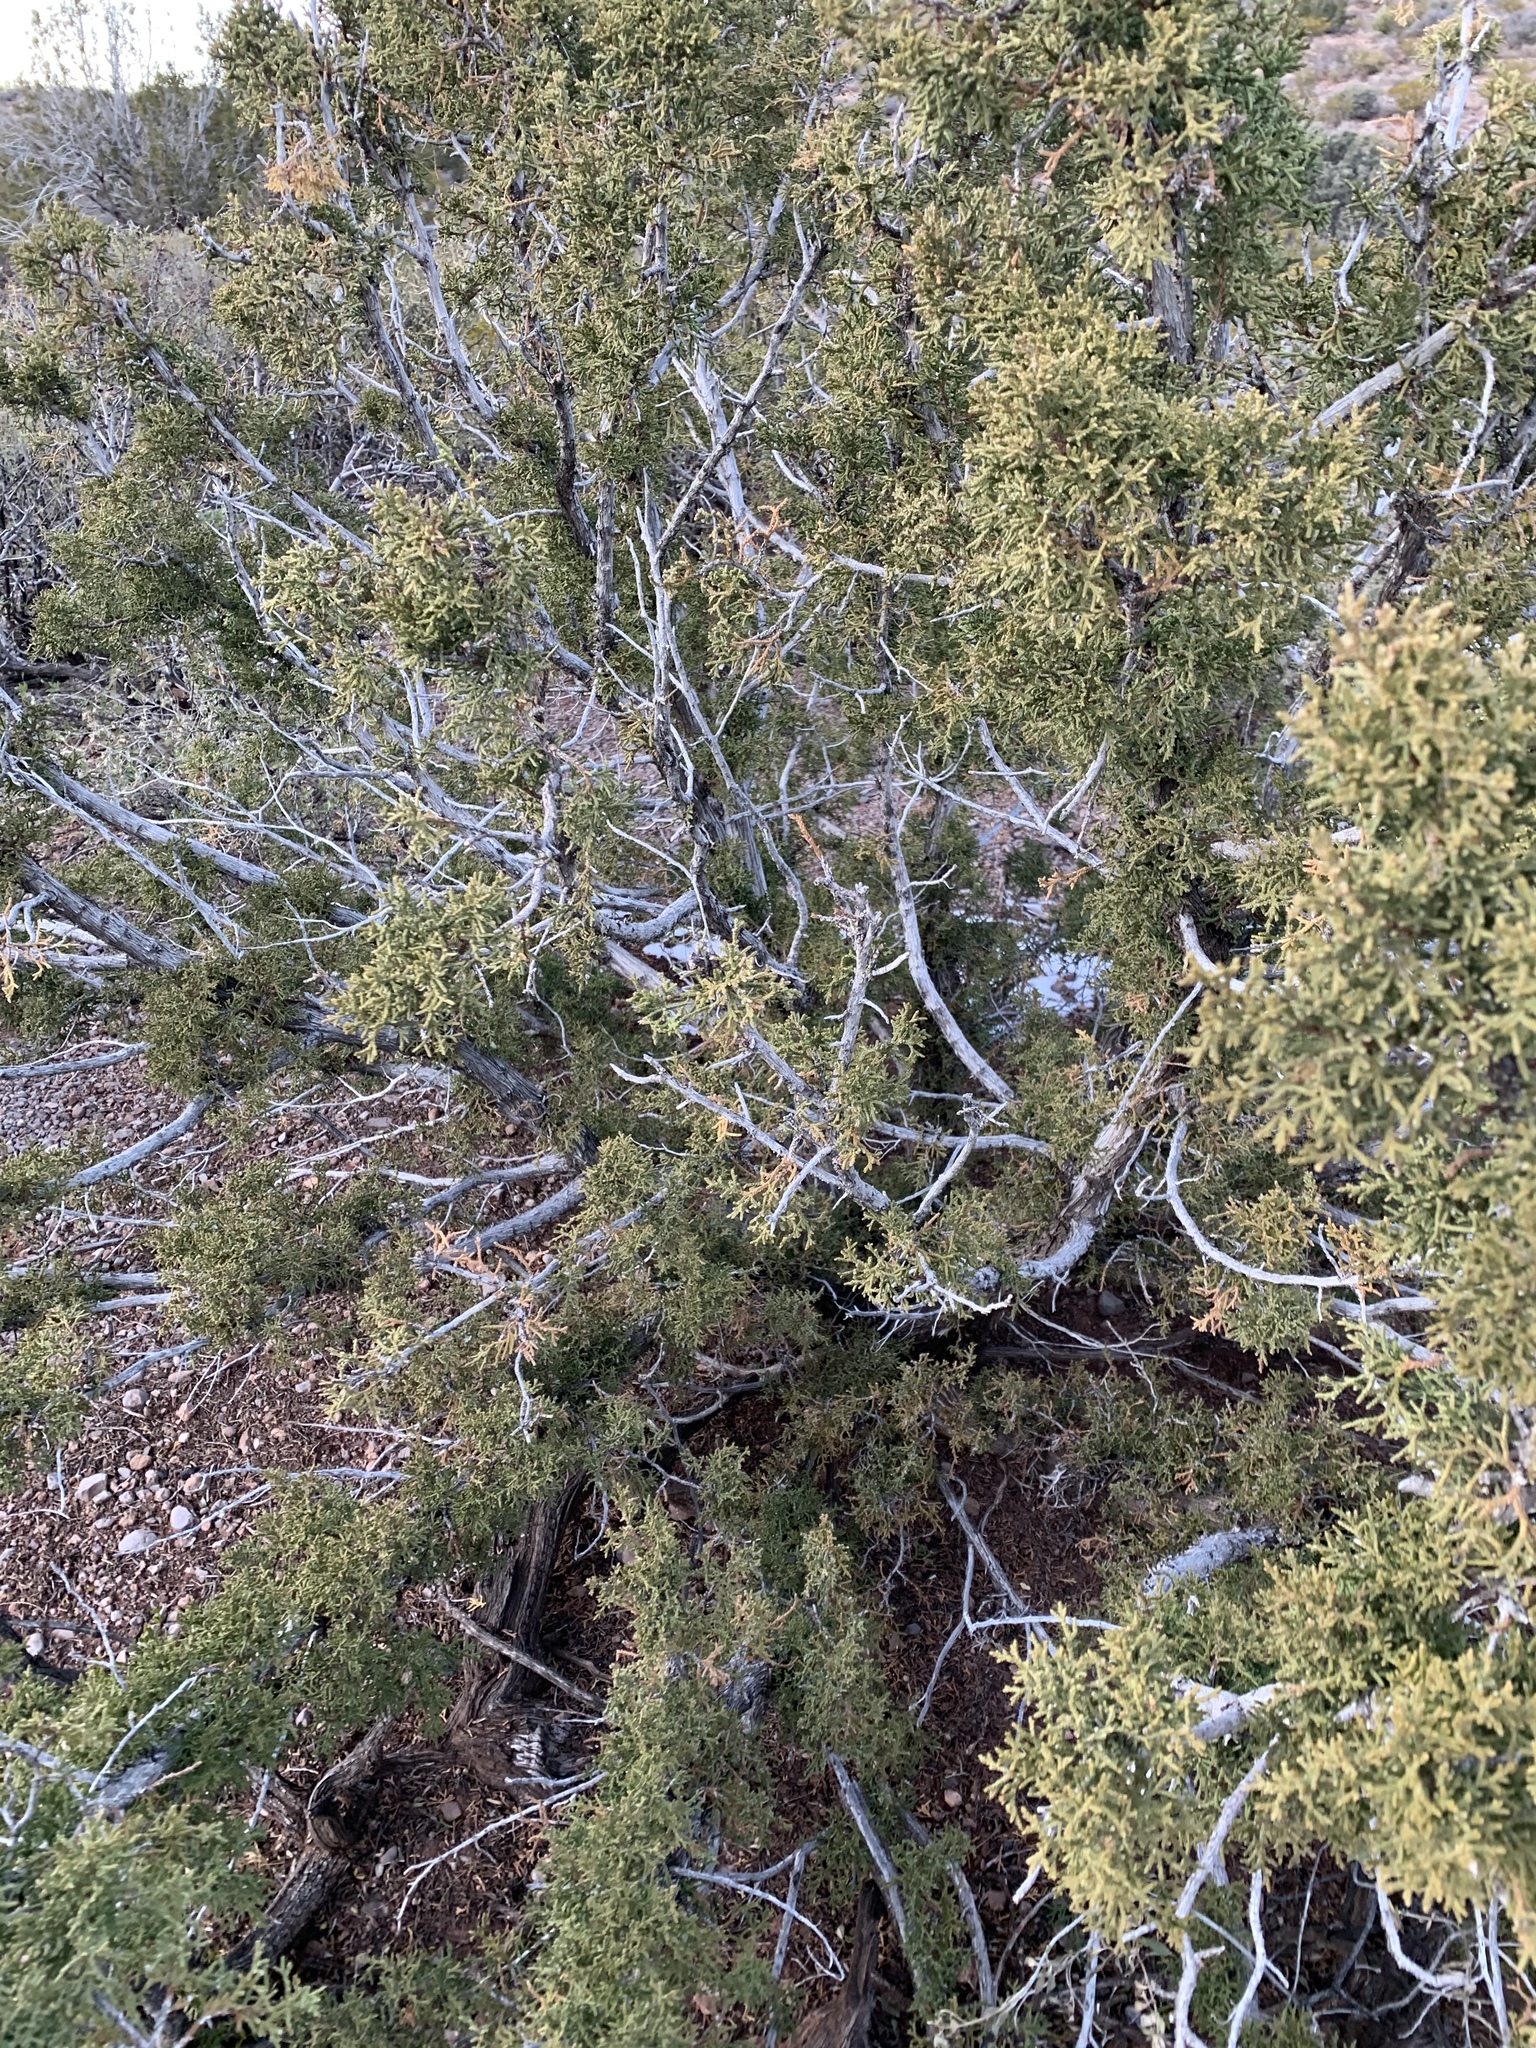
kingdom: Plantae
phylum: Tracheophyta
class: Pinopsida
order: Pinales
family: Cupressaceae
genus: Juniperus
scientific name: Juniperus monosperma
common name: One-seed juniper
